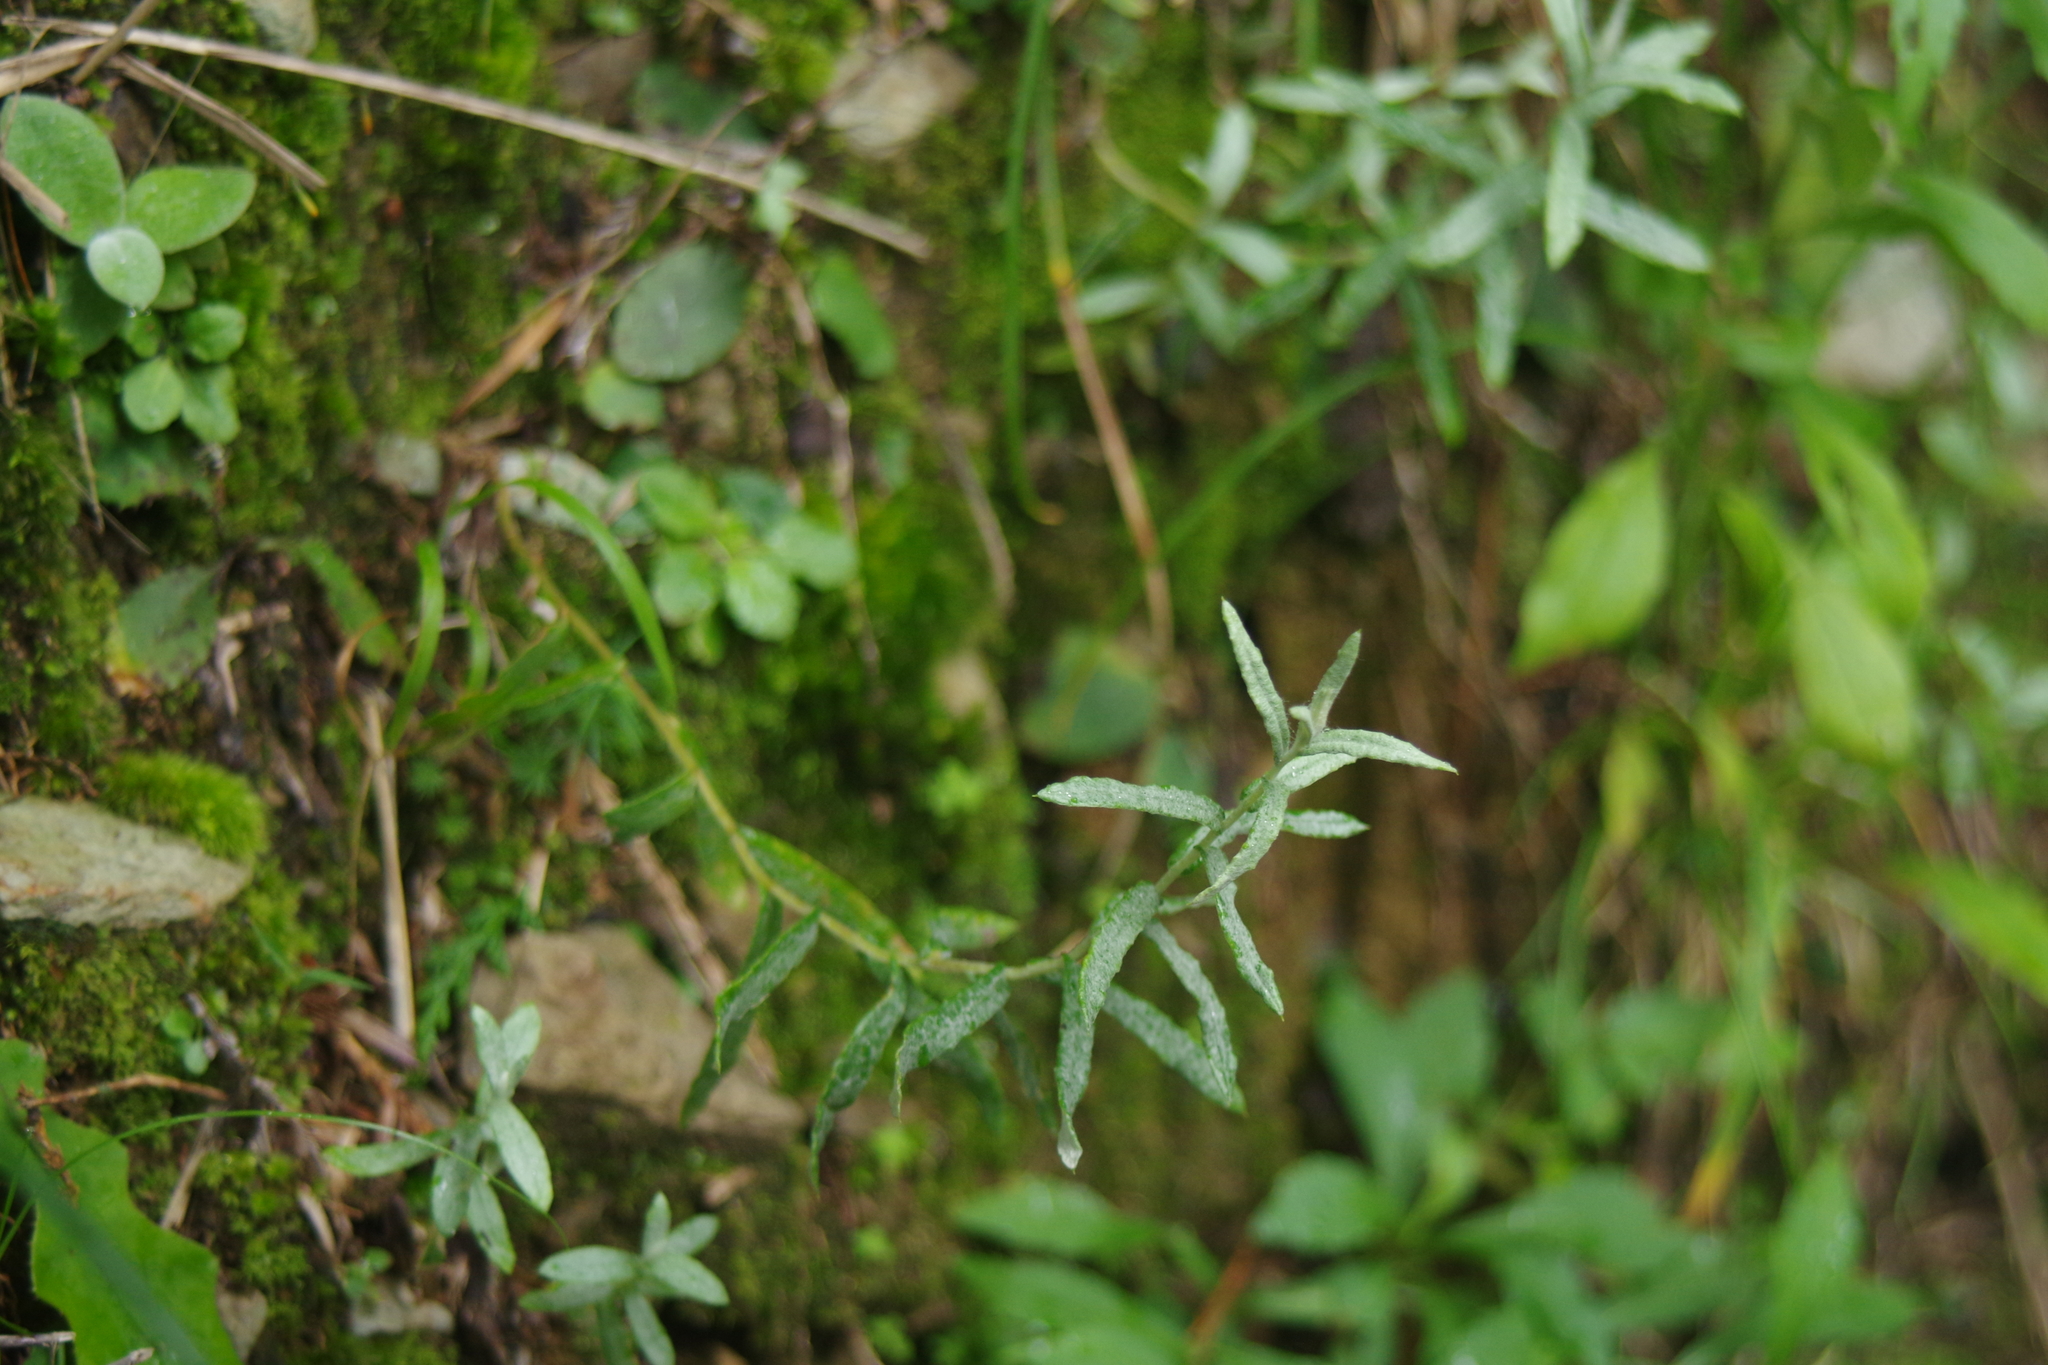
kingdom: Plantae
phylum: Tracheophyta
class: Magnoliopsida
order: Asterales
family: Asteraceae
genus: Anaphalis
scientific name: Anaphalis morrisonicola
